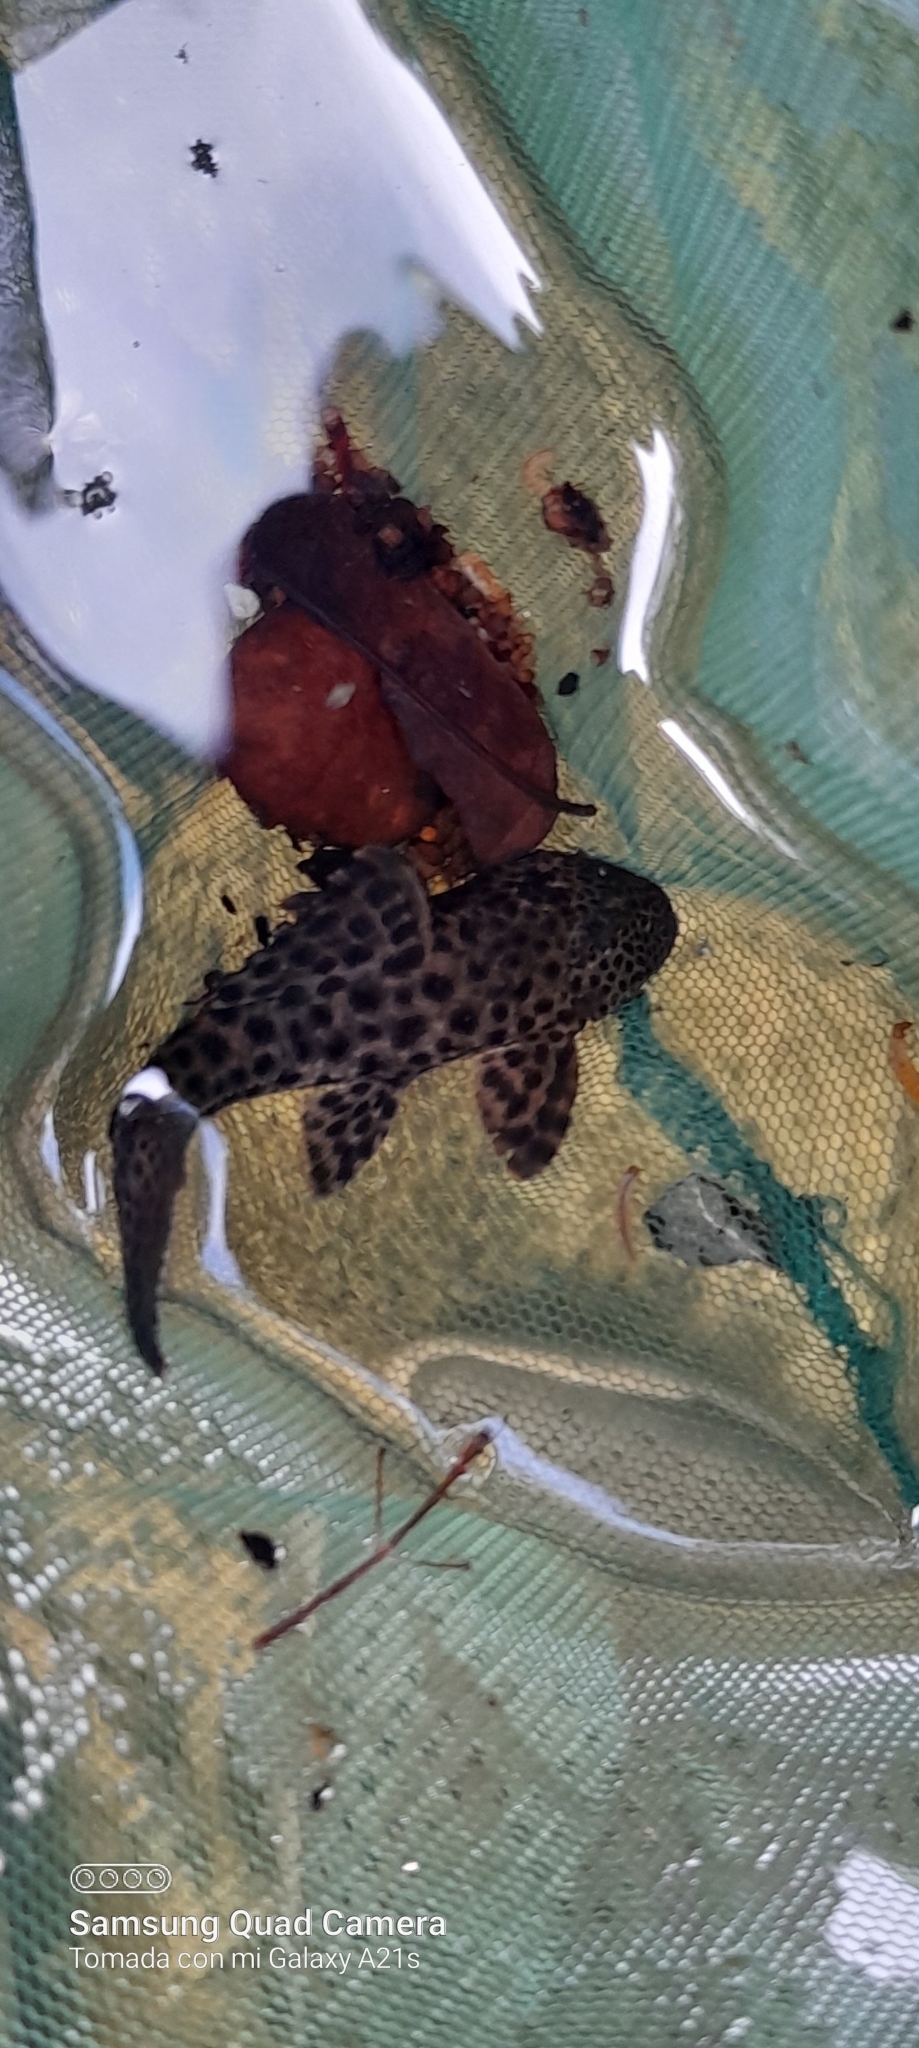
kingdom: Animalia
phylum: Chordata
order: Siluriformes
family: Loricariidae
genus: Hemiancistrus
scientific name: Hemiancistrus aspidolepis
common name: Panama suckermouth
